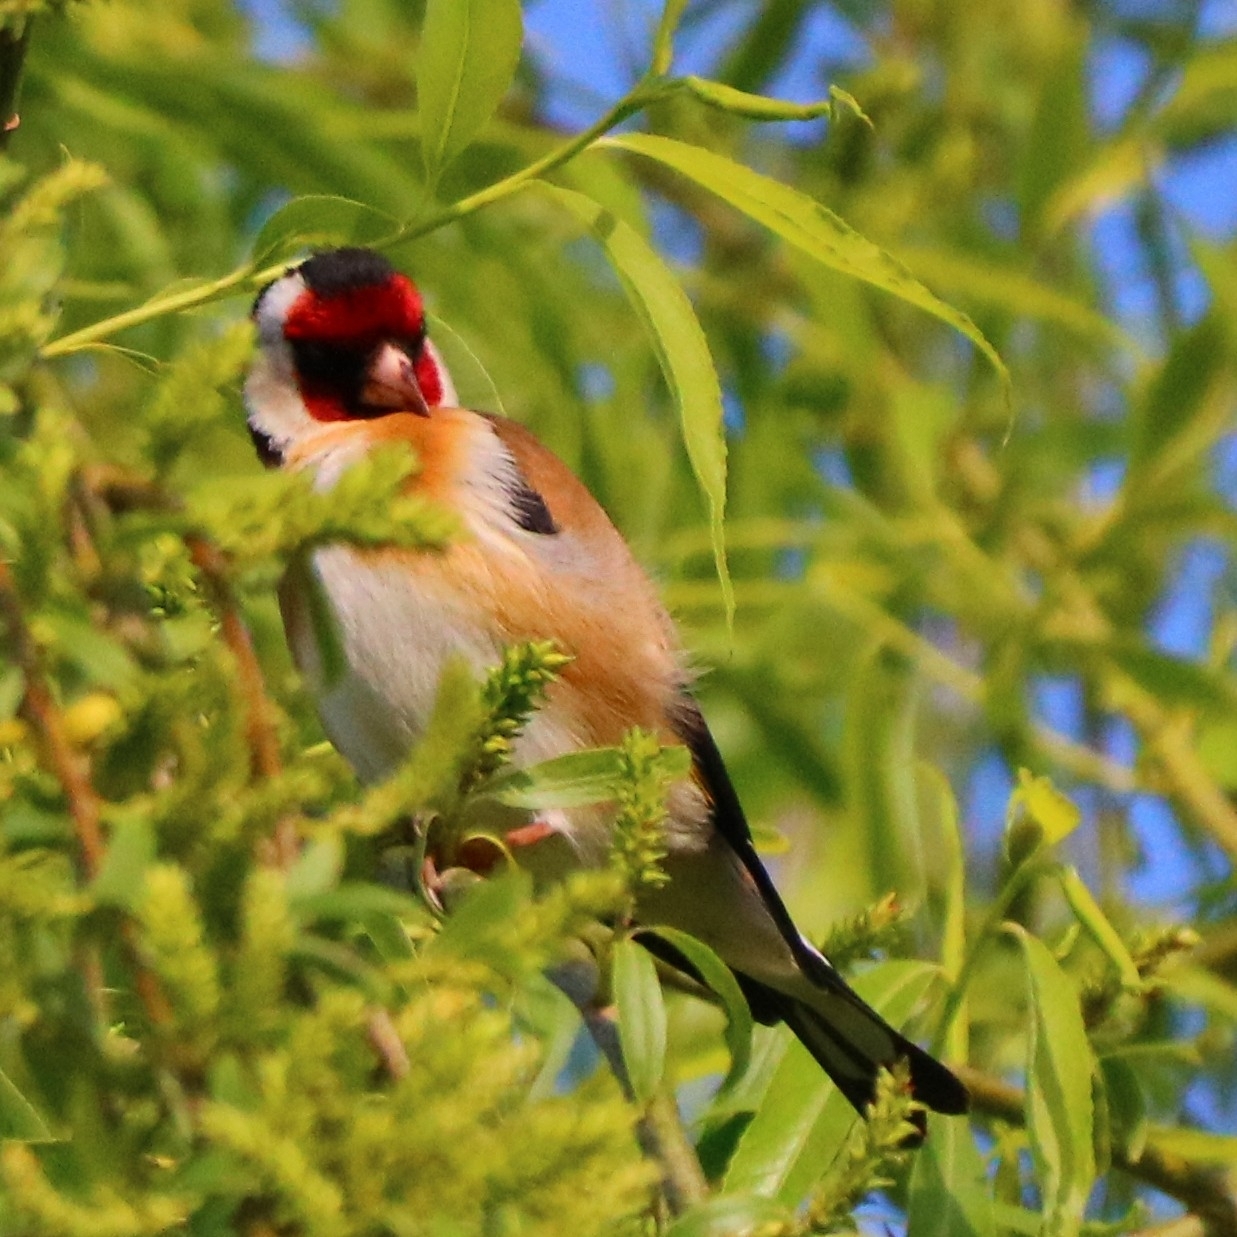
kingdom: Animalia
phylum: Chordata
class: Aves
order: Passeriformes
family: Fringillidae
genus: Carduelis
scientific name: Carduelis carduelis
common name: European goldfinch
